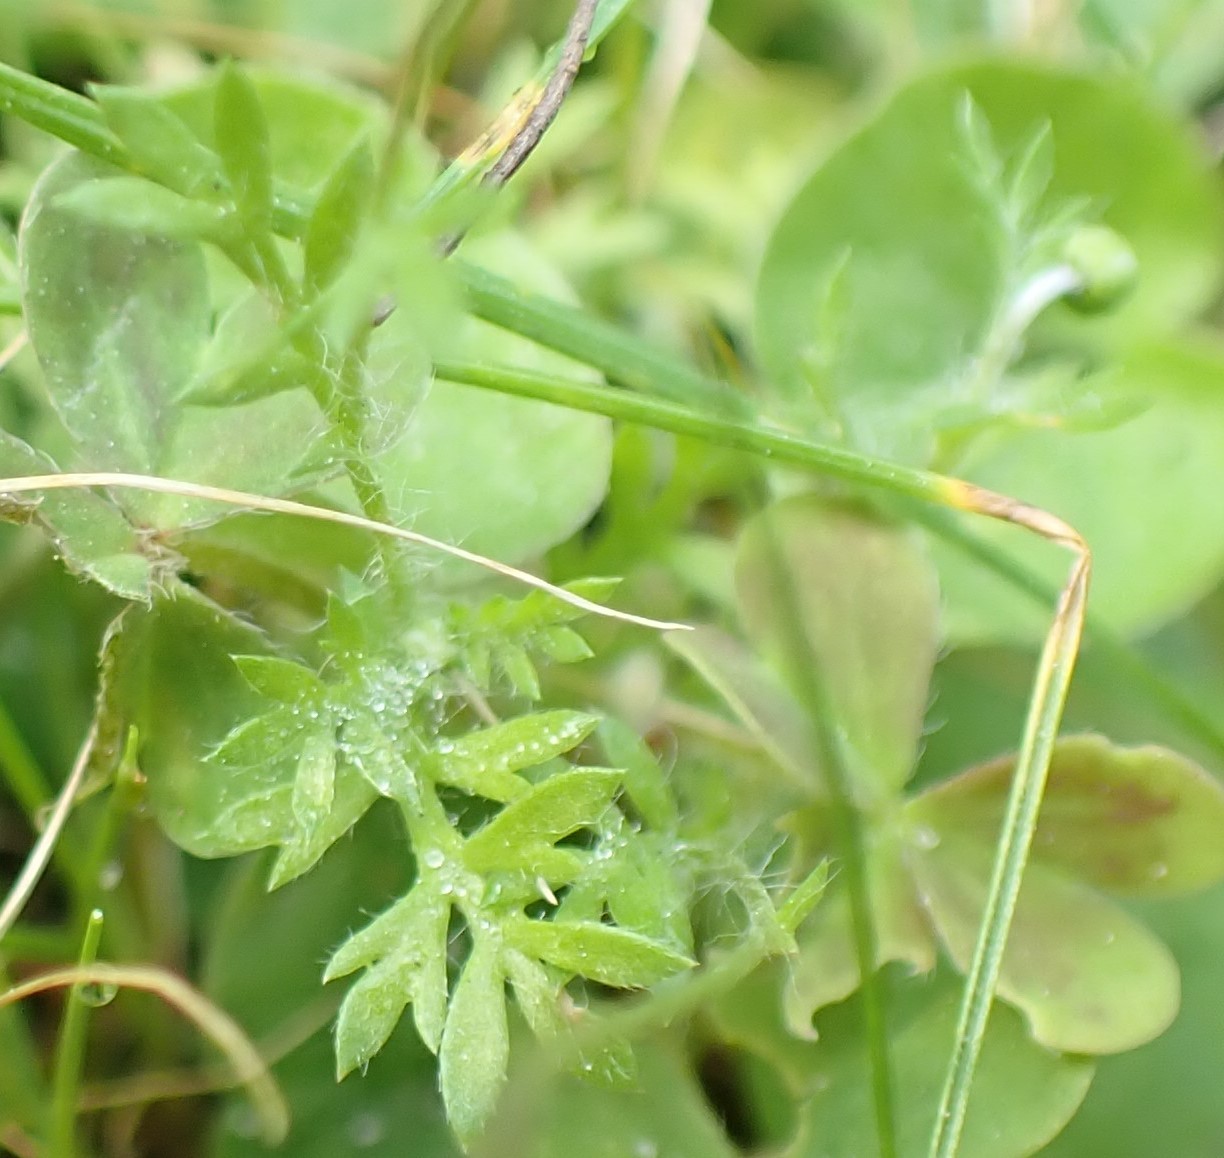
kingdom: Plantae
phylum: Tracheophyta
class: Magnoliopsida
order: Asterales
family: Asteraceae
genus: Cotula
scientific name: Cotula australis
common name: Australian waterbuttons
